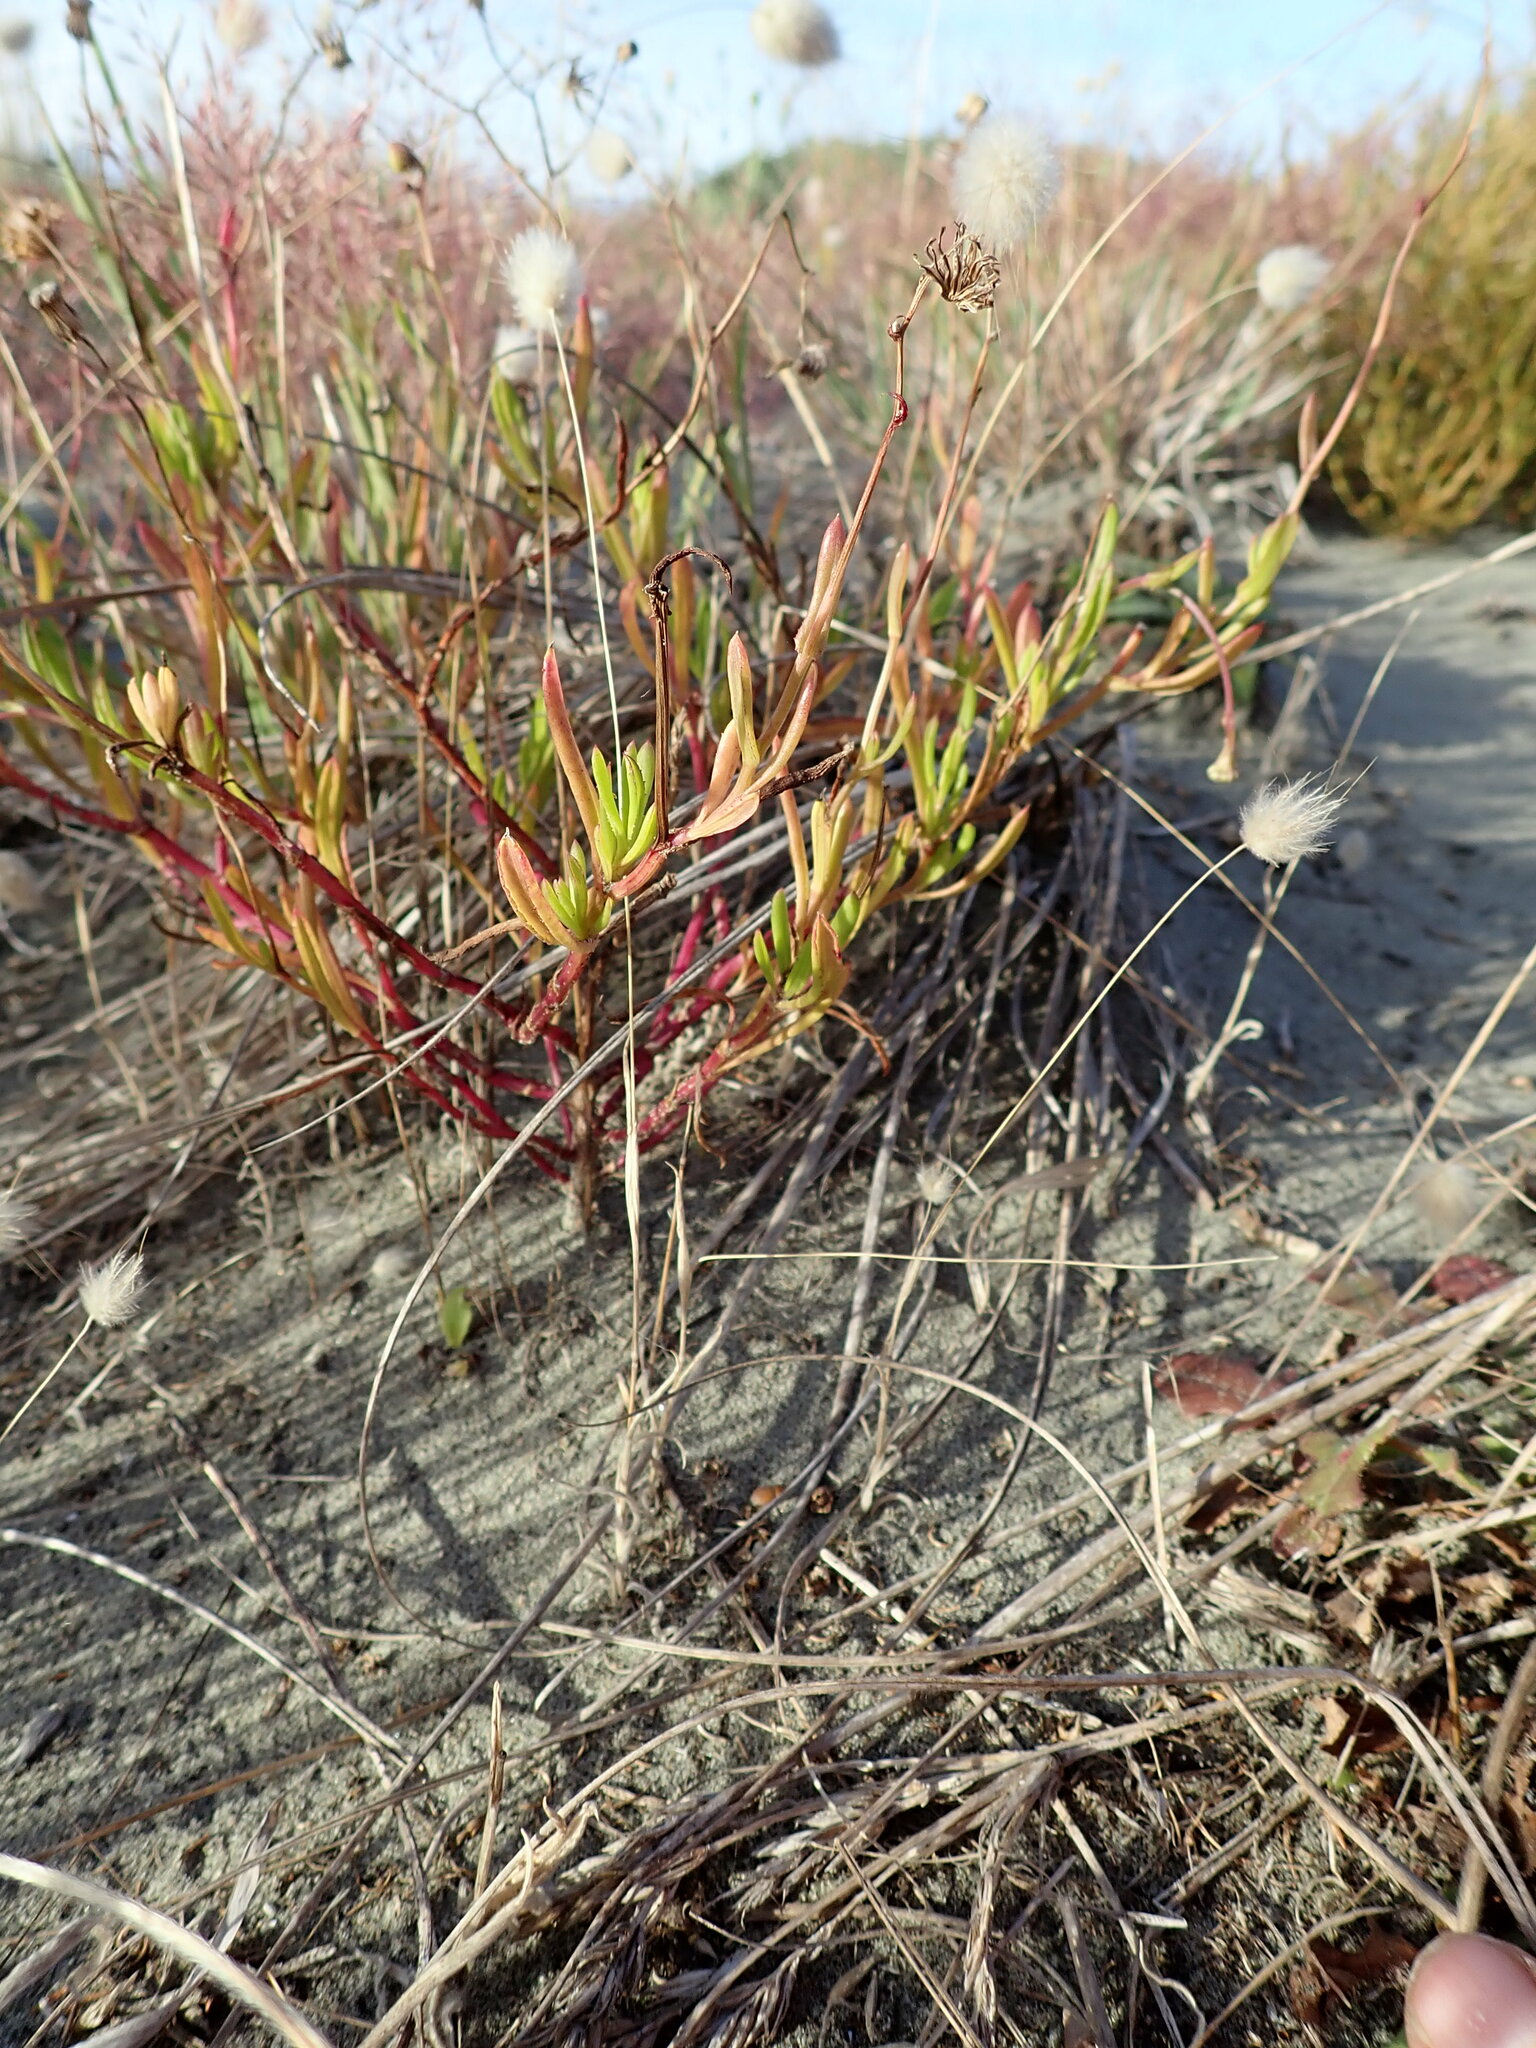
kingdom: Plantae
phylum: Tracheophyta
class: Magnoliopsida
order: Asterales
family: Asteraceae
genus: Senecio
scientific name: Senecio skirrhodon
